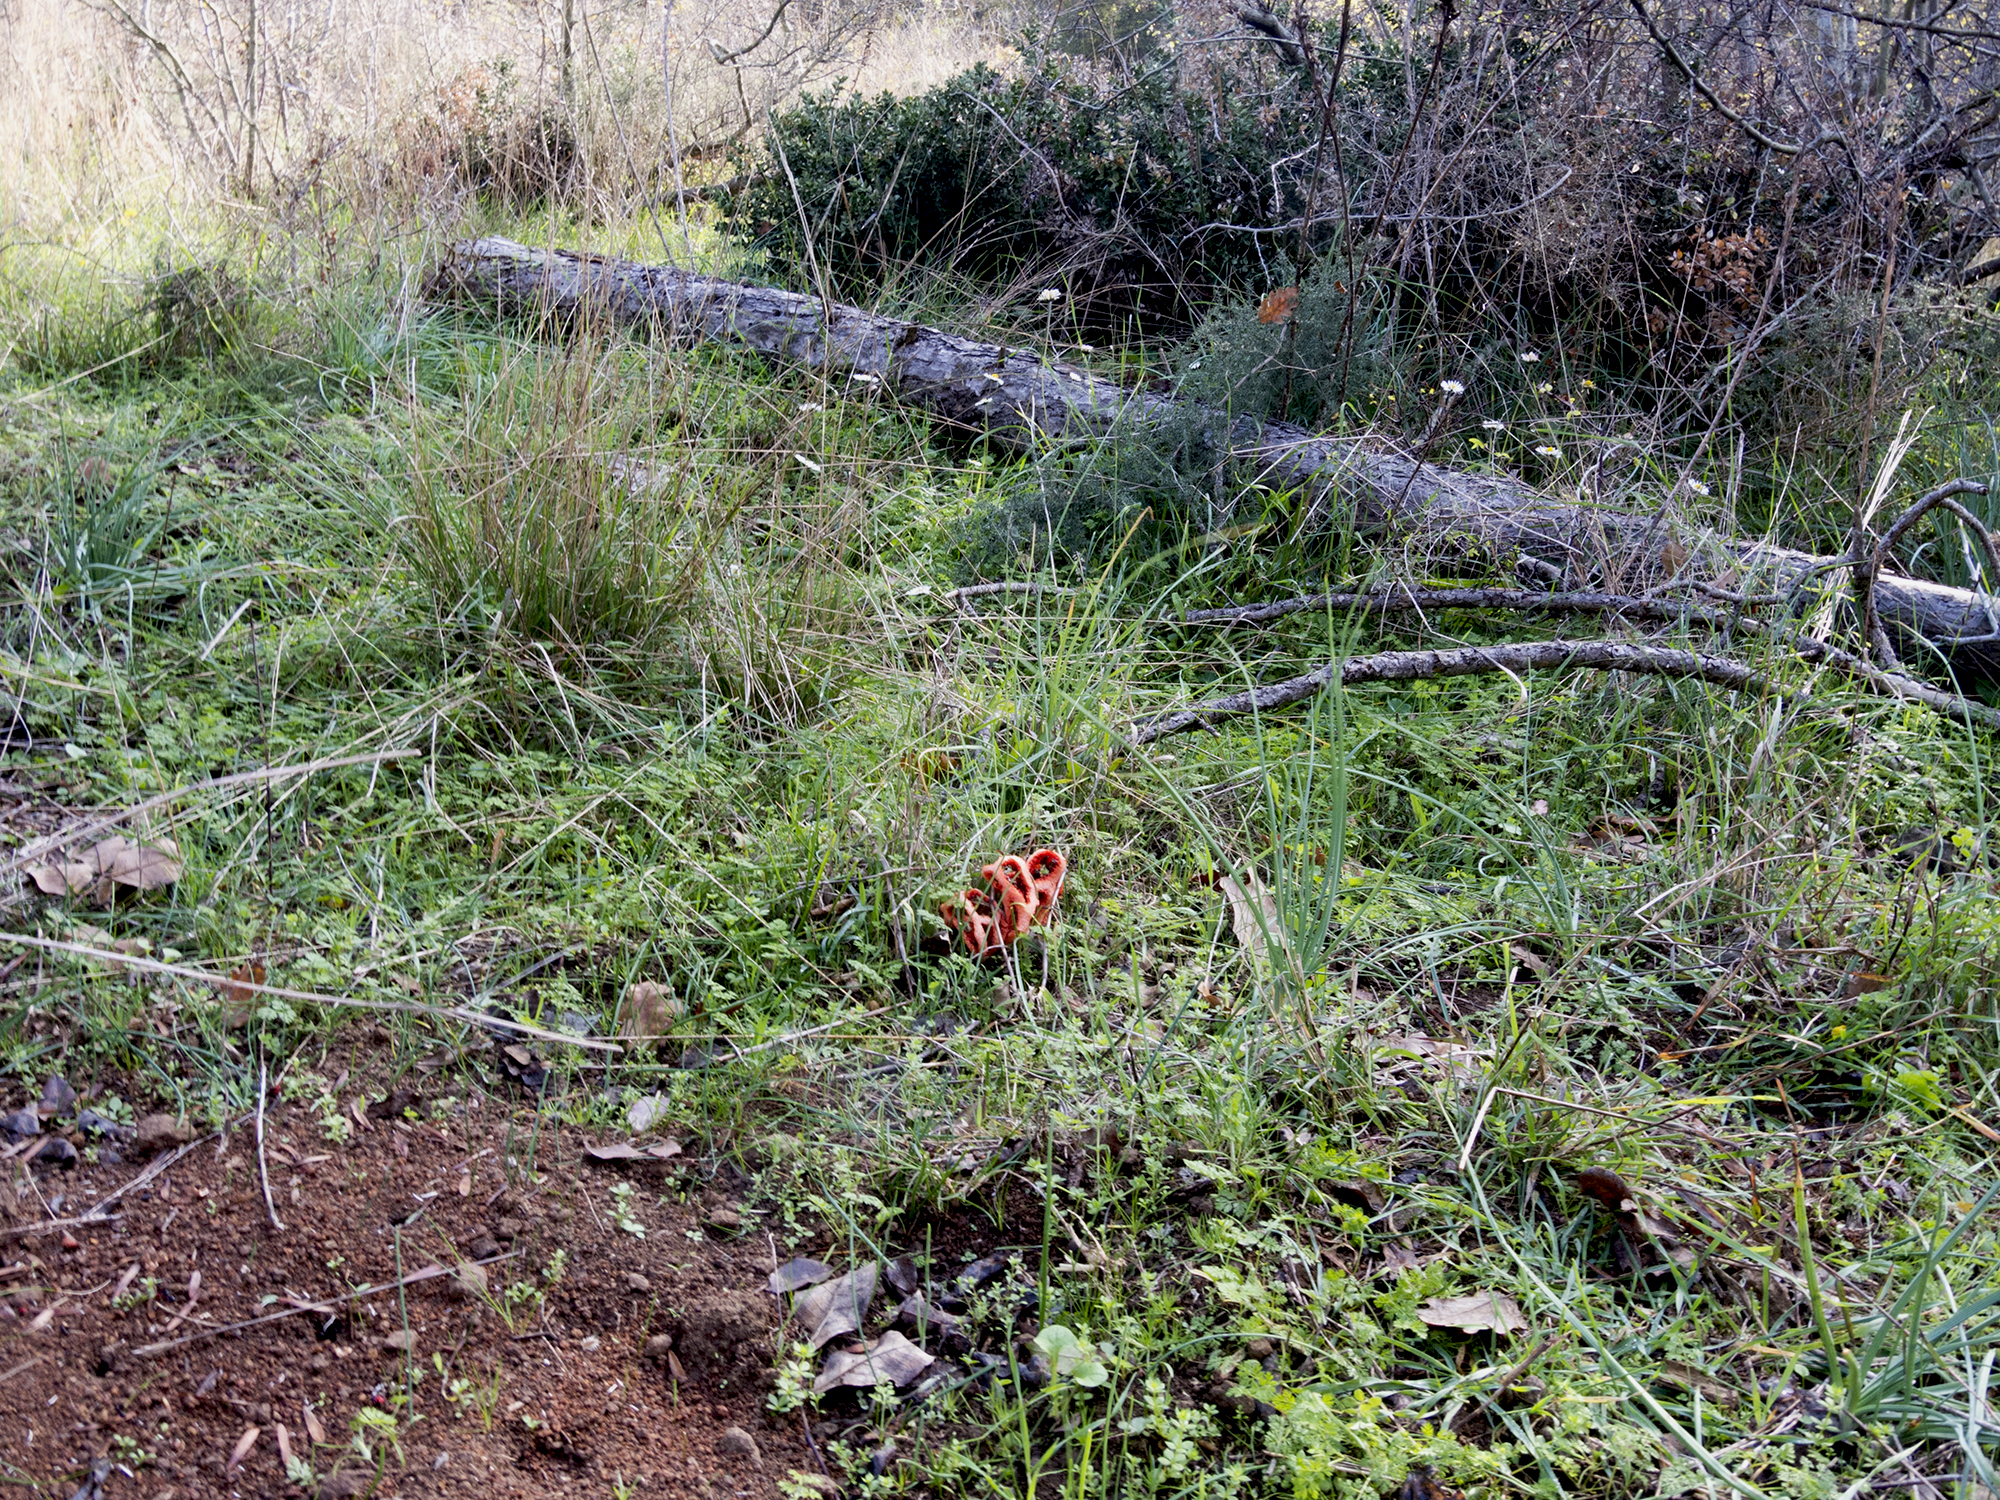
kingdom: Fungi
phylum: Basidiomycota
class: Agaricomycetes
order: Phallales
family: Phallaceae
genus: Clathrus
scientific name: Clathrus ruber
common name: Red cage
